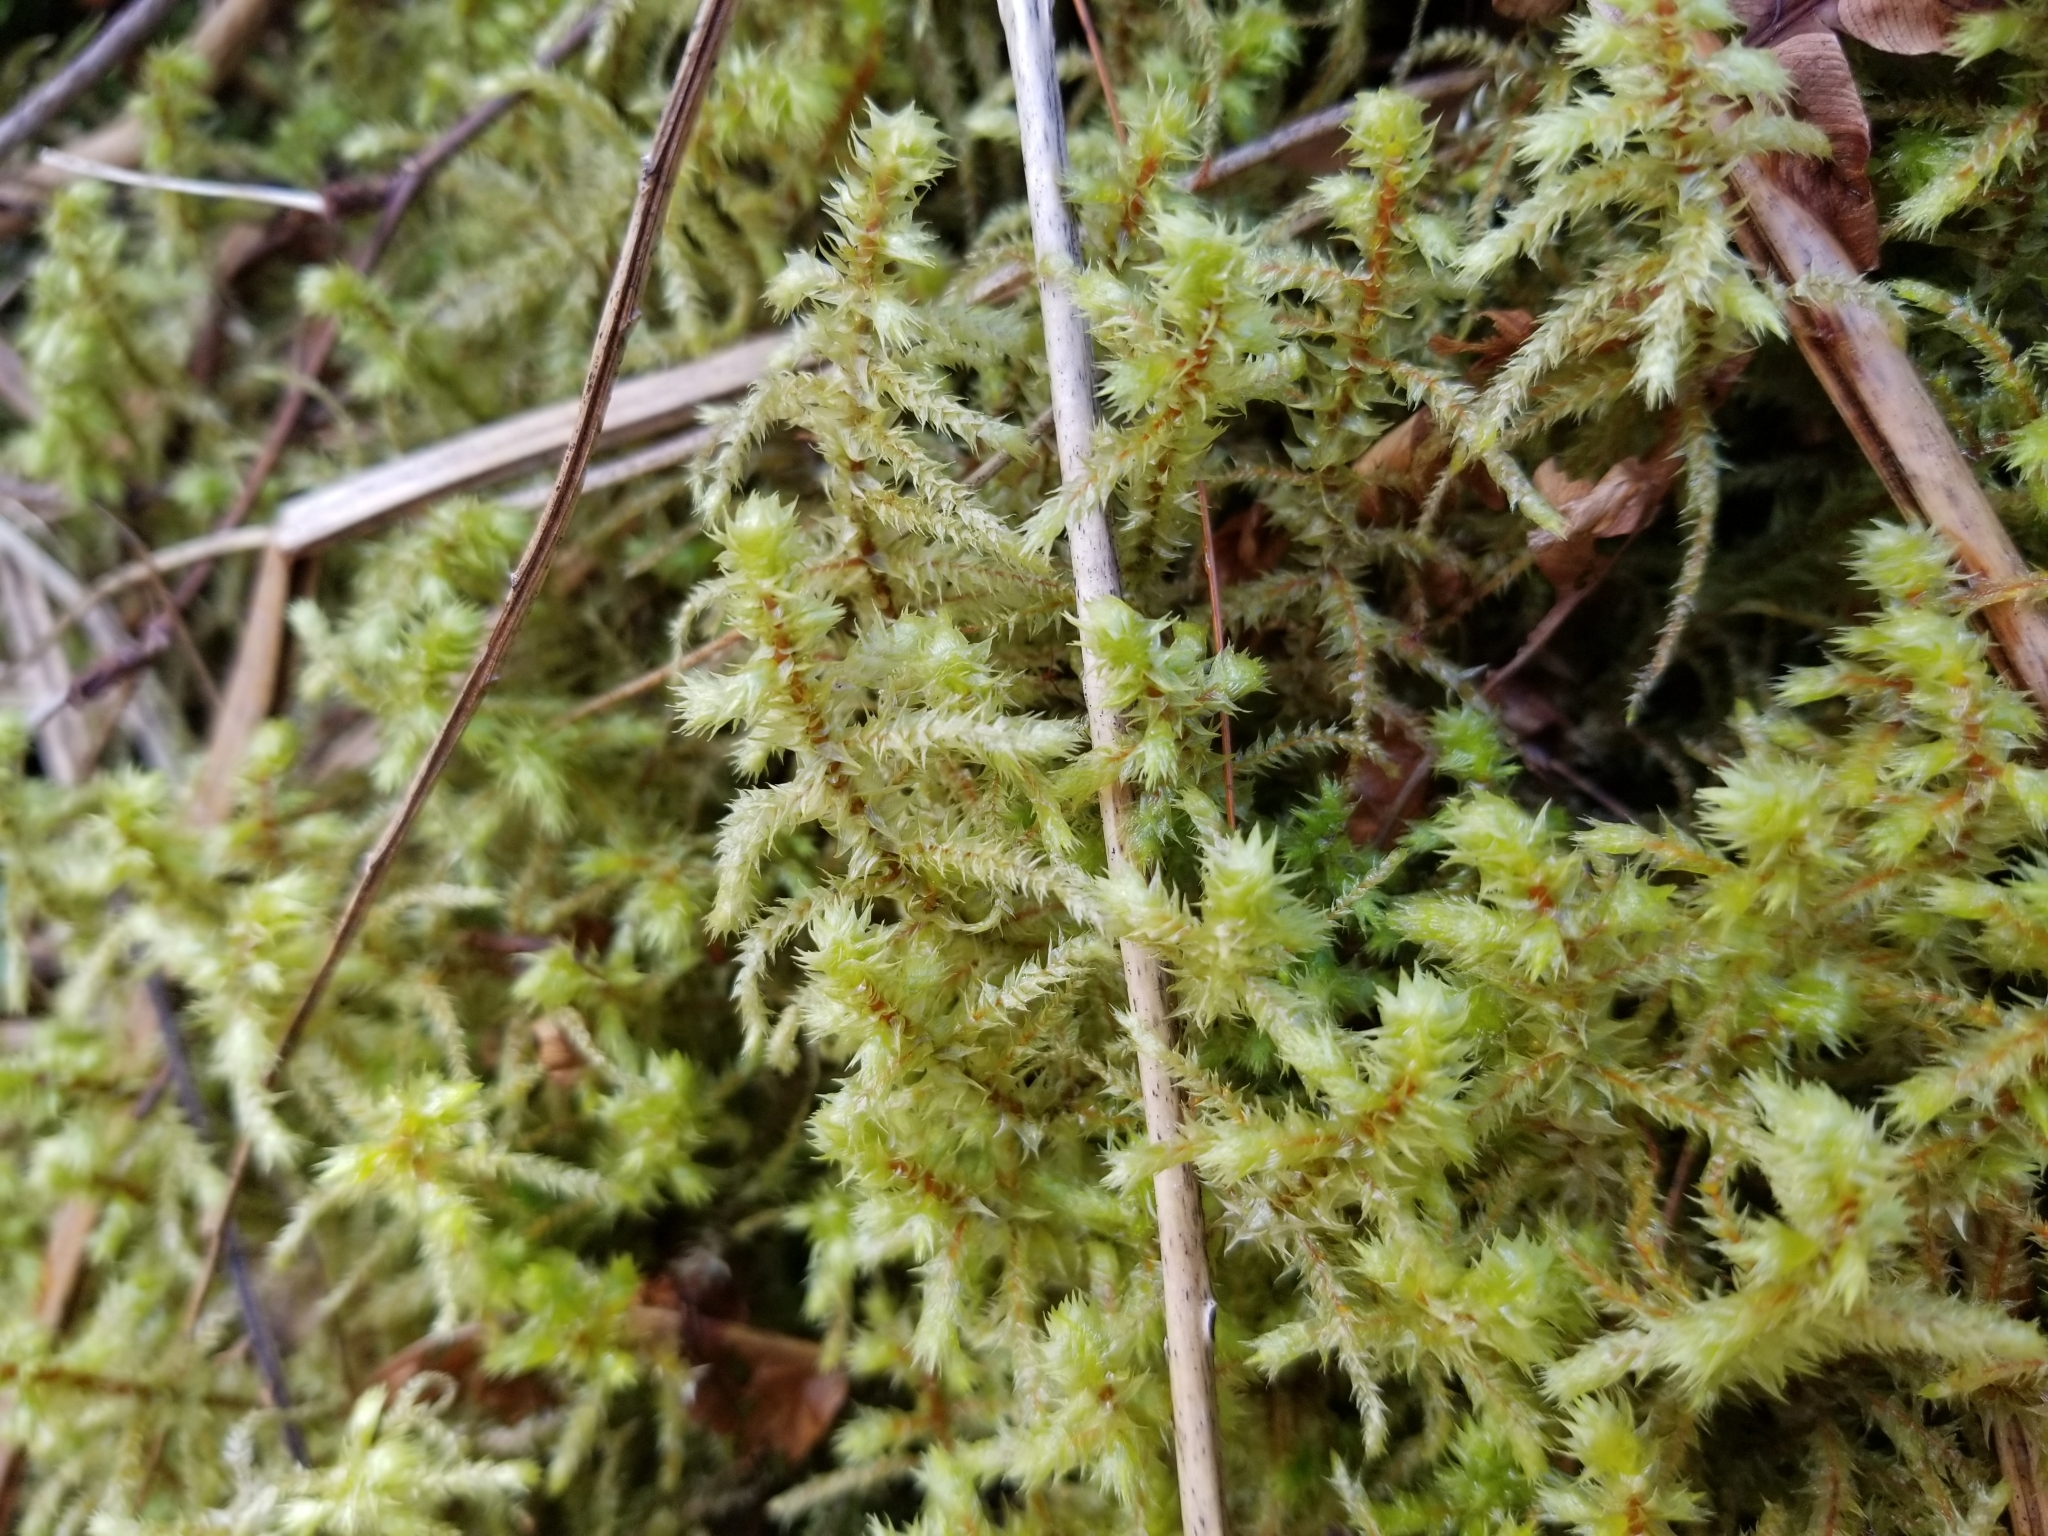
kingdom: Plantae
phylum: Bryophyta
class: Bryopsida
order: Hypnales
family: Hylocomiaceae
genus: Hylocomiadelphus
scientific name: Hylocomiadelphus triquetrus
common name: Rough goose neck moss
